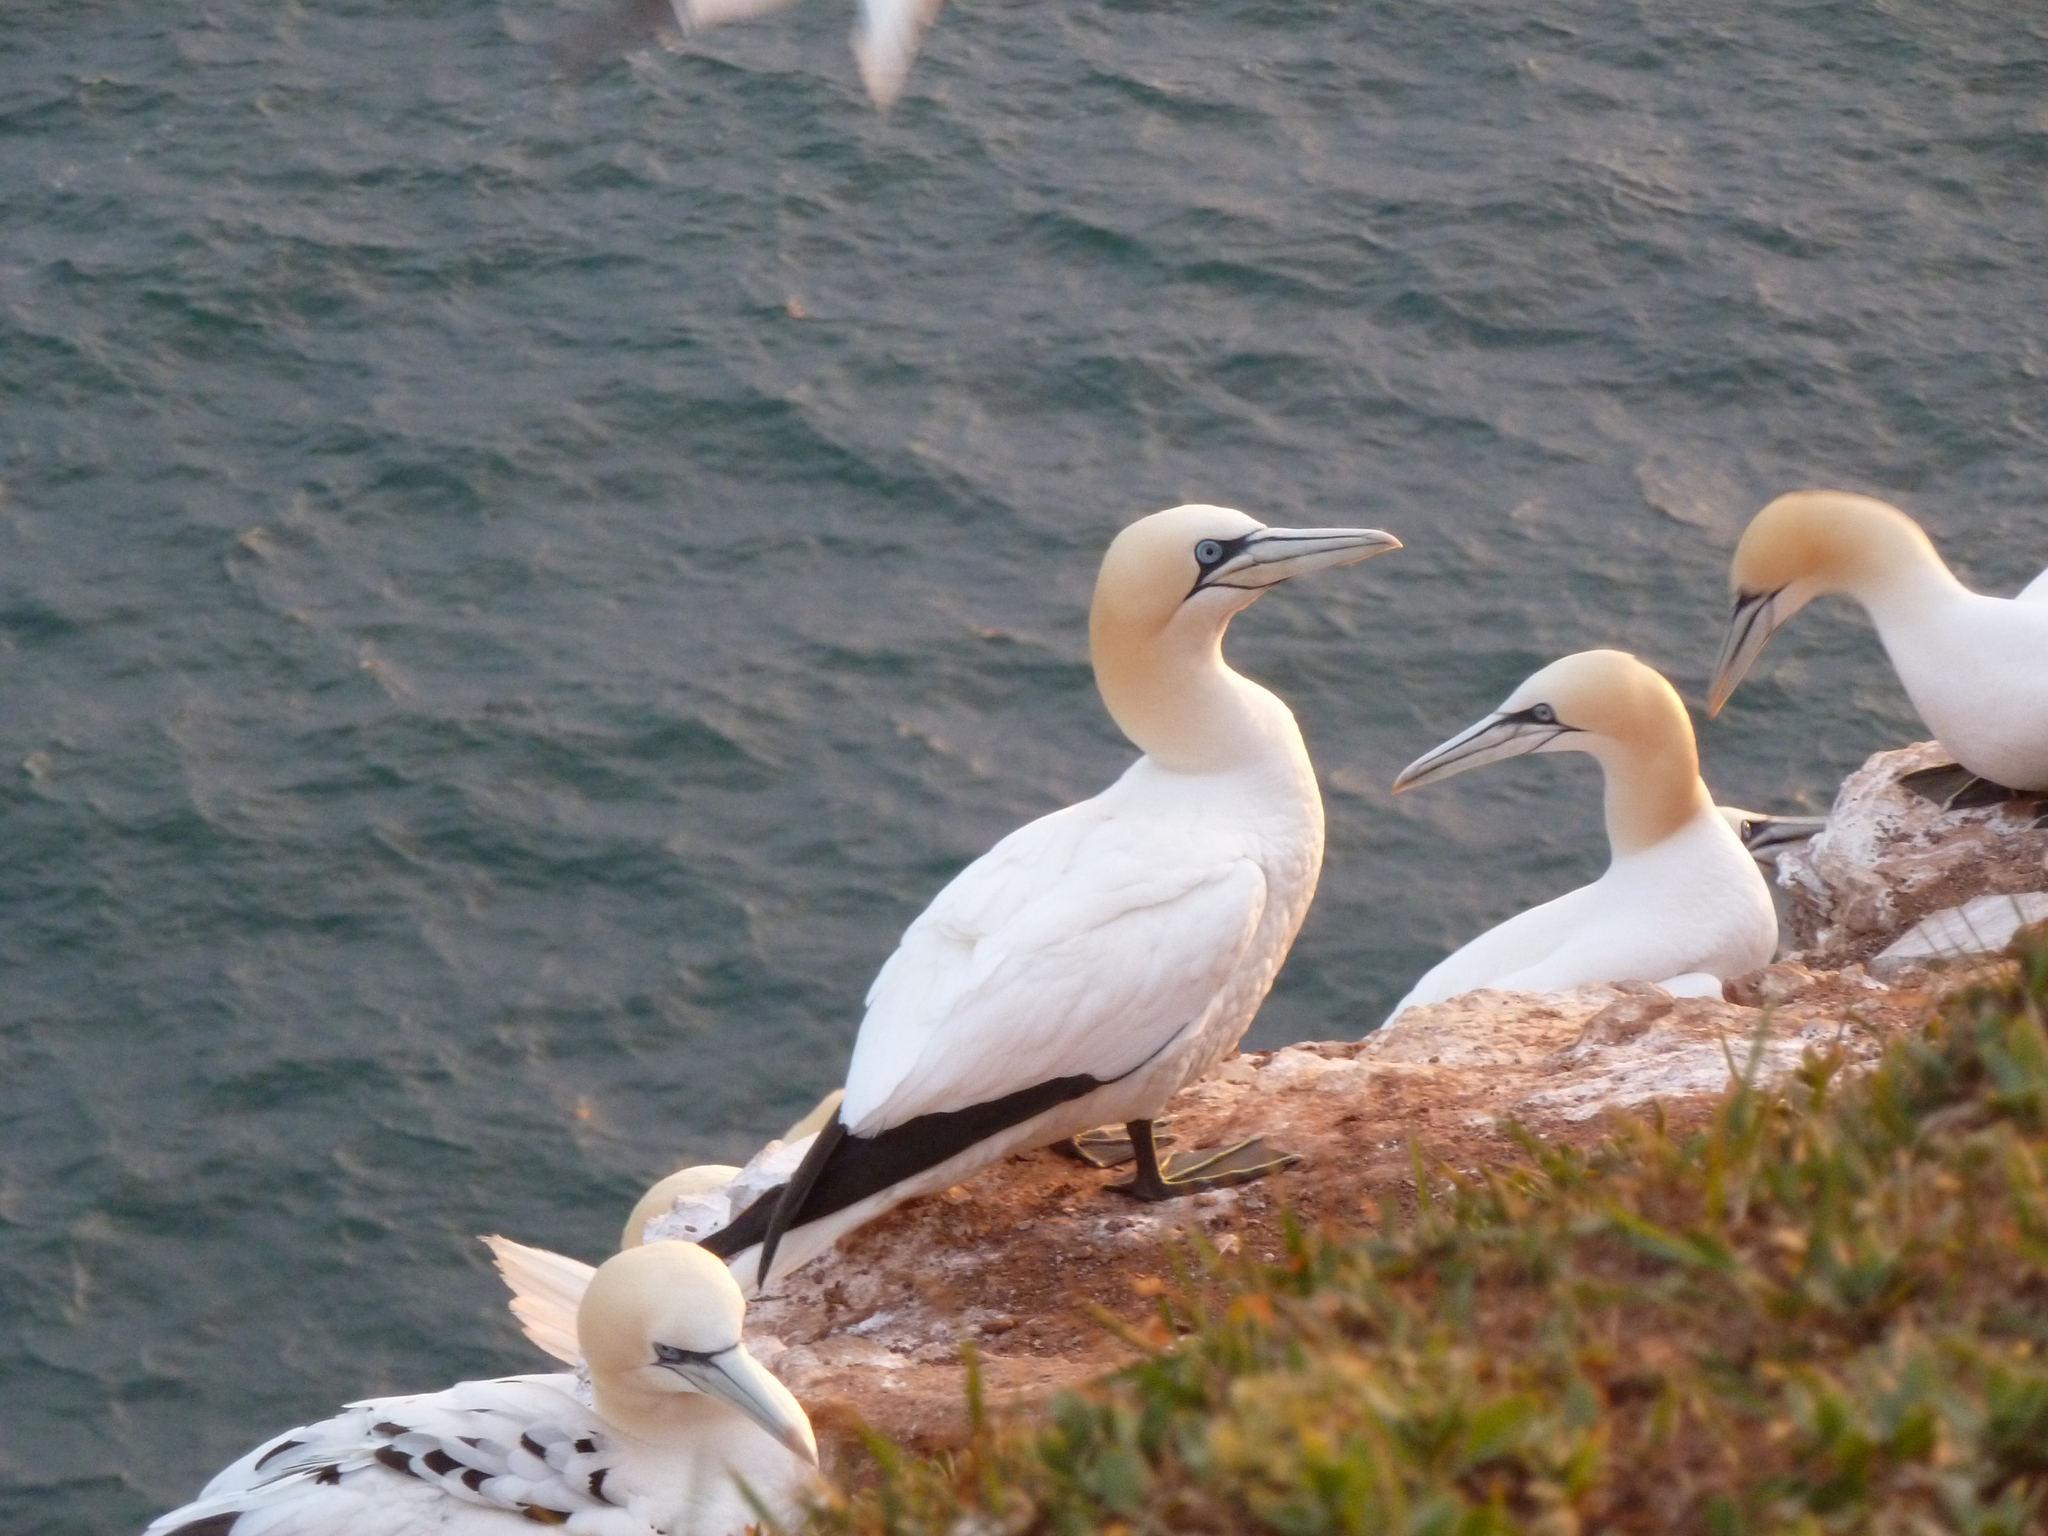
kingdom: Animalia
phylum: Chordata
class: Aves
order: Suliformes
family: Sulidae
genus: Morus
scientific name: Morus bassanus
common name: Northern gannet
